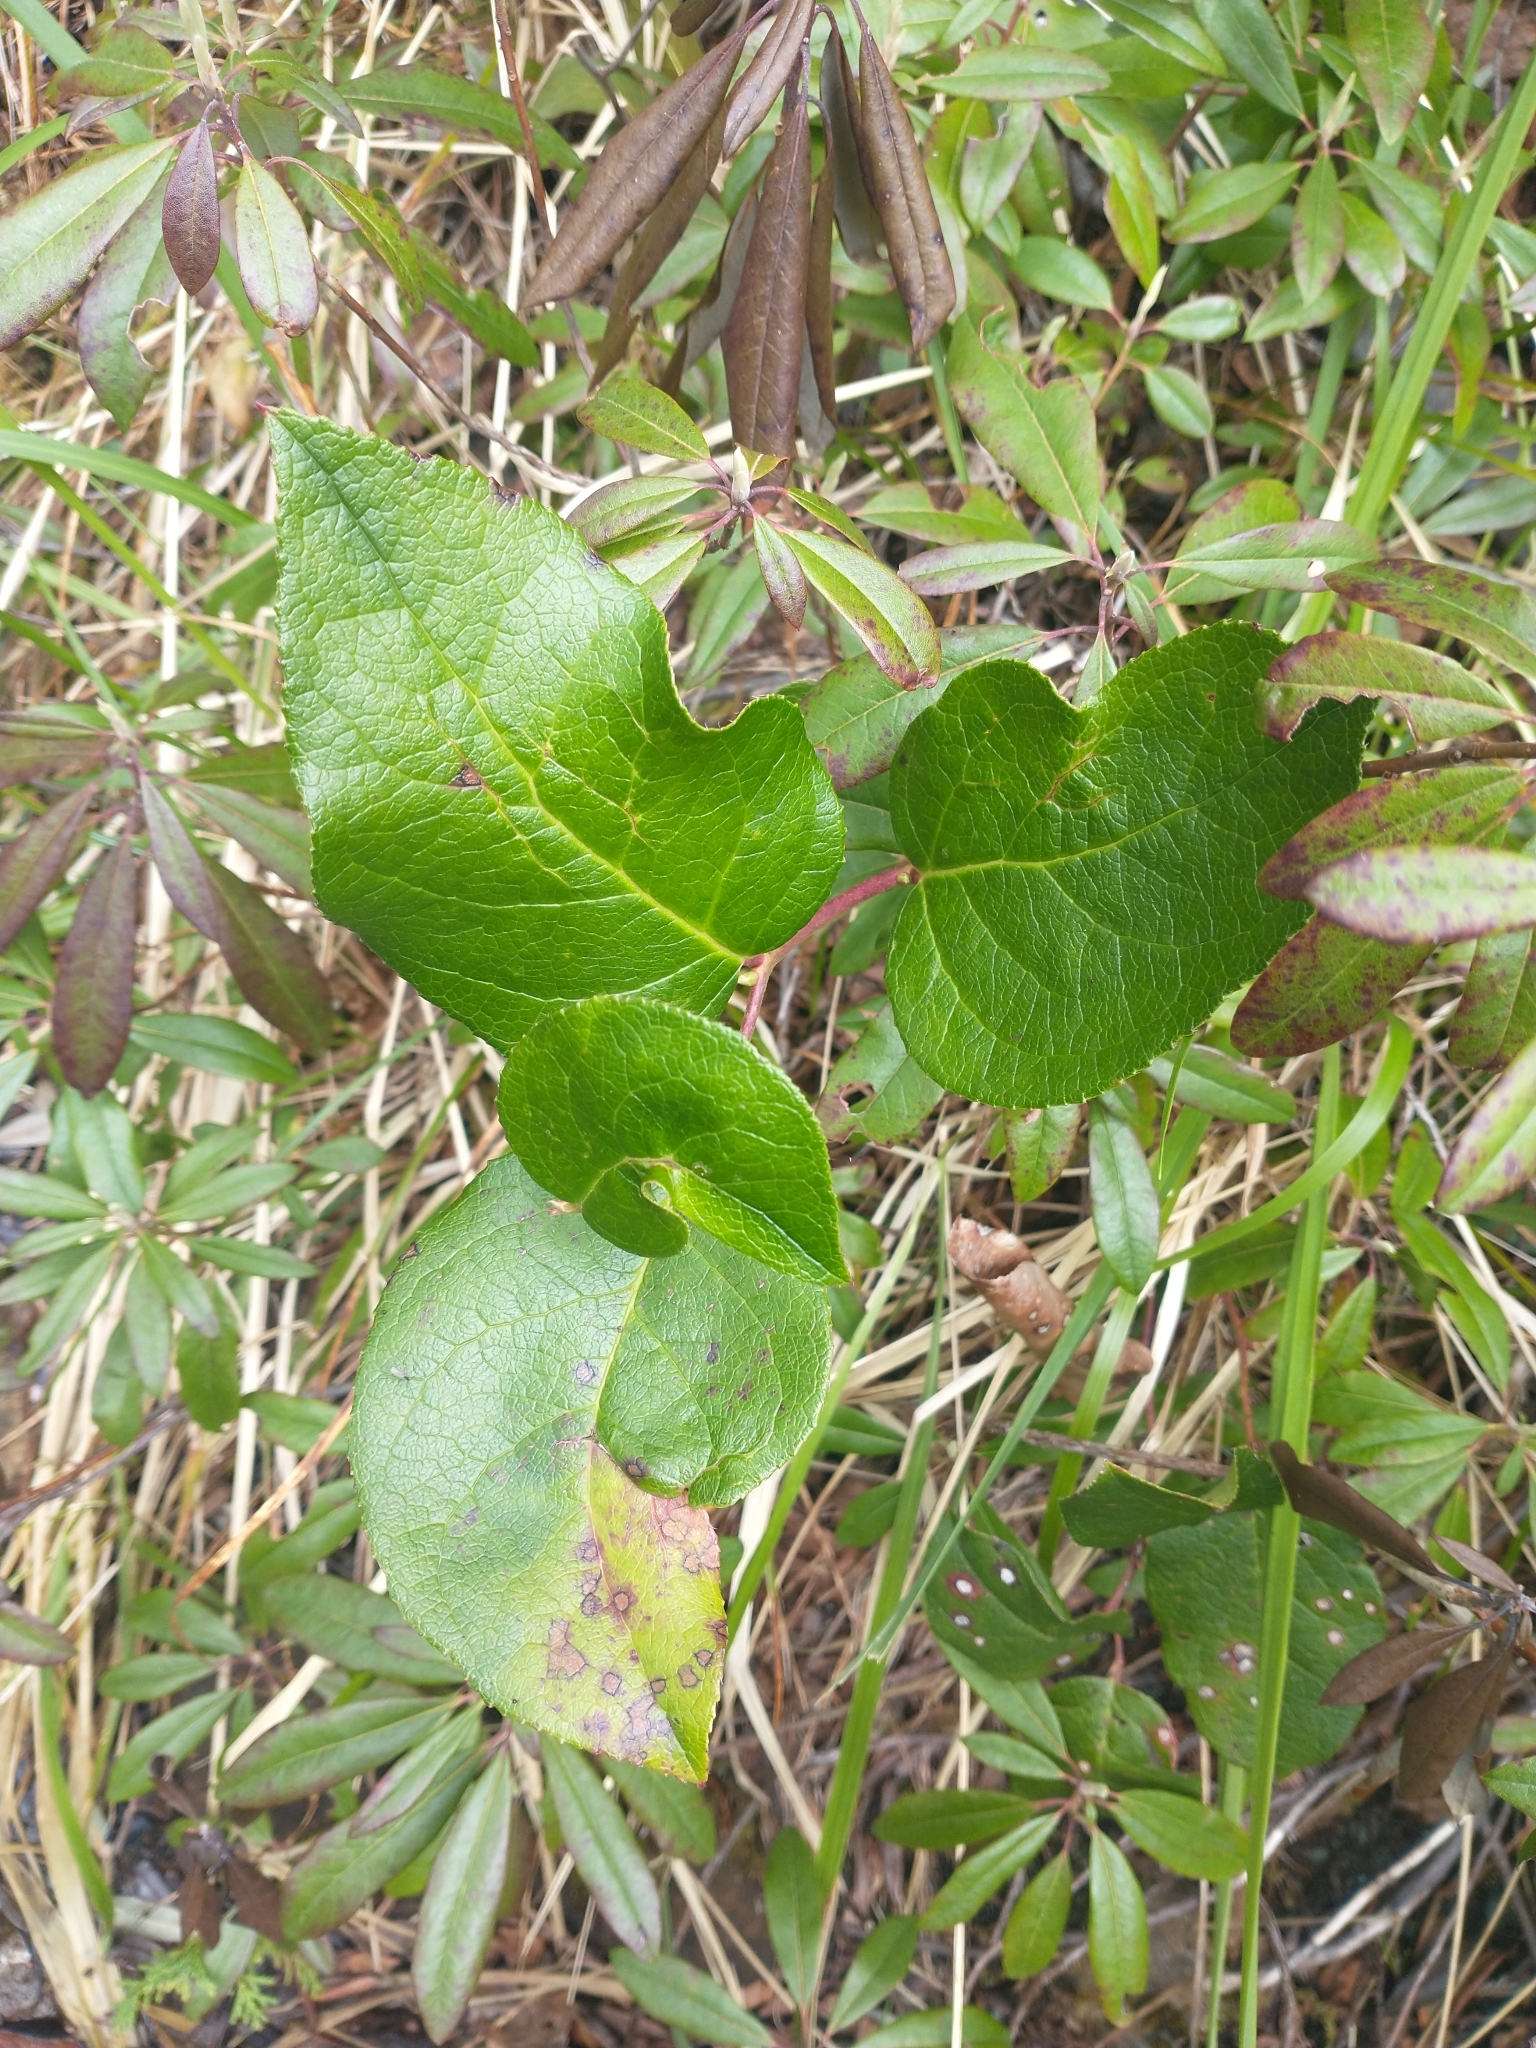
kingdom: Plantae
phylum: Tracheophyta
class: Magnoliopsida
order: Ericales
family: Ericaceae
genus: Gaultheria
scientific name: Gaultheria shallon
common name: Shallon
